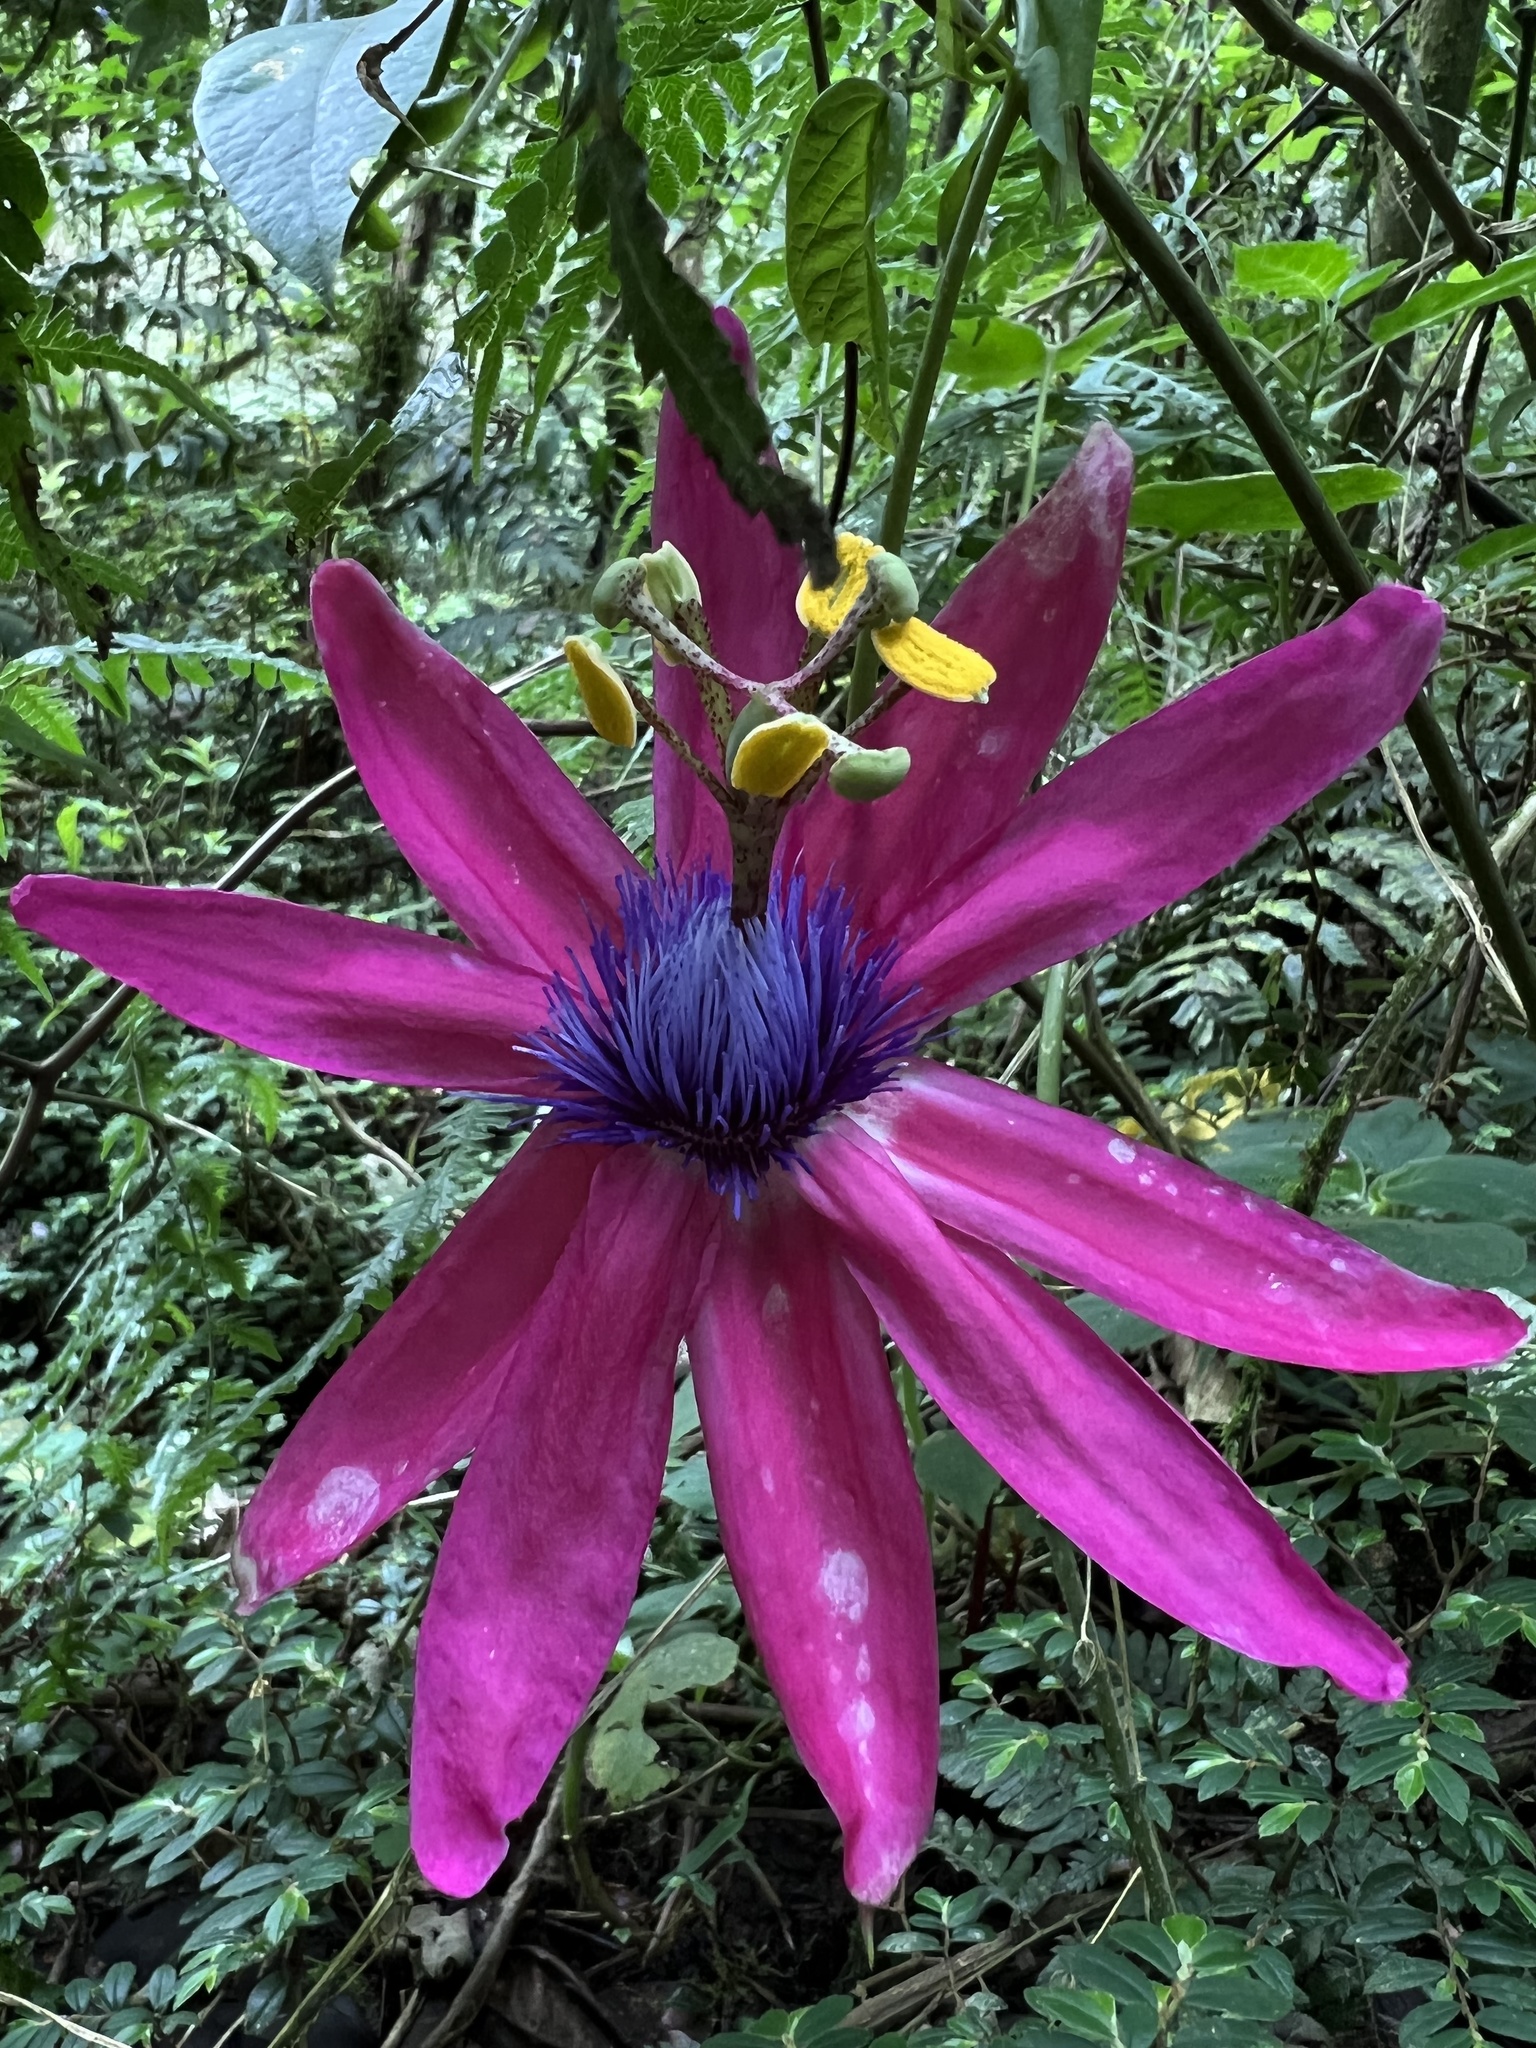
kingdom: Plantae
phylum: Tracheophyta
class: Magnoliopsida
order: Malpighiales
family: Passifloraceae
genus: Passiflora
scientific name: Passiflora longipes
